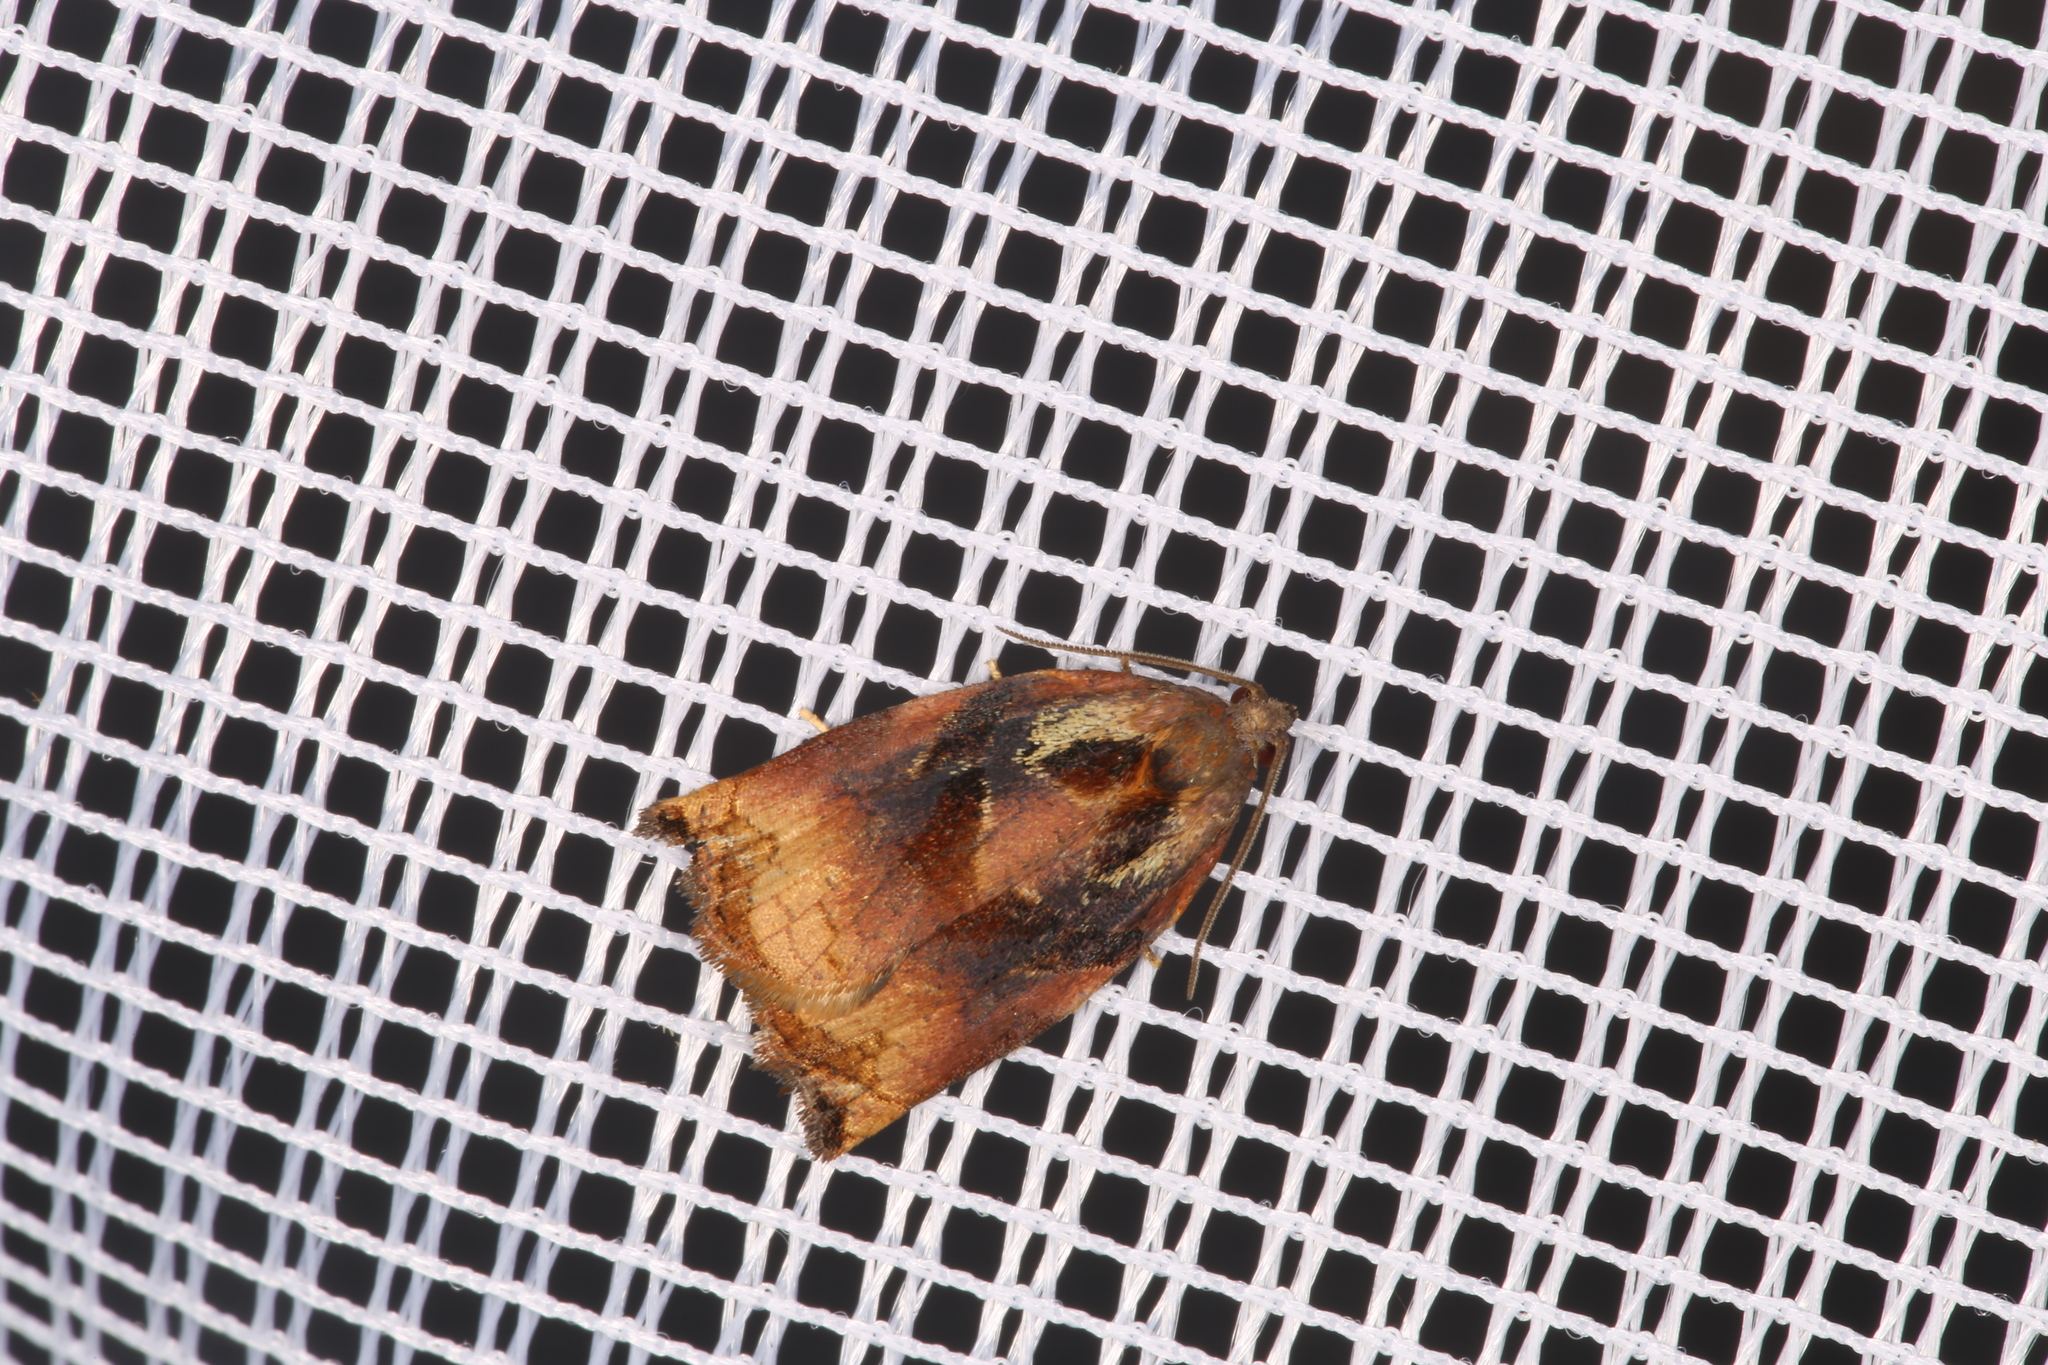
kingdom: Animalia
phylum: Arthropoda
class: Insecta
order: Lepidoptera
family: Tortricidae
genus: Archips
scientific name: Archips podana
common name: Large fruit-tree tortrix
